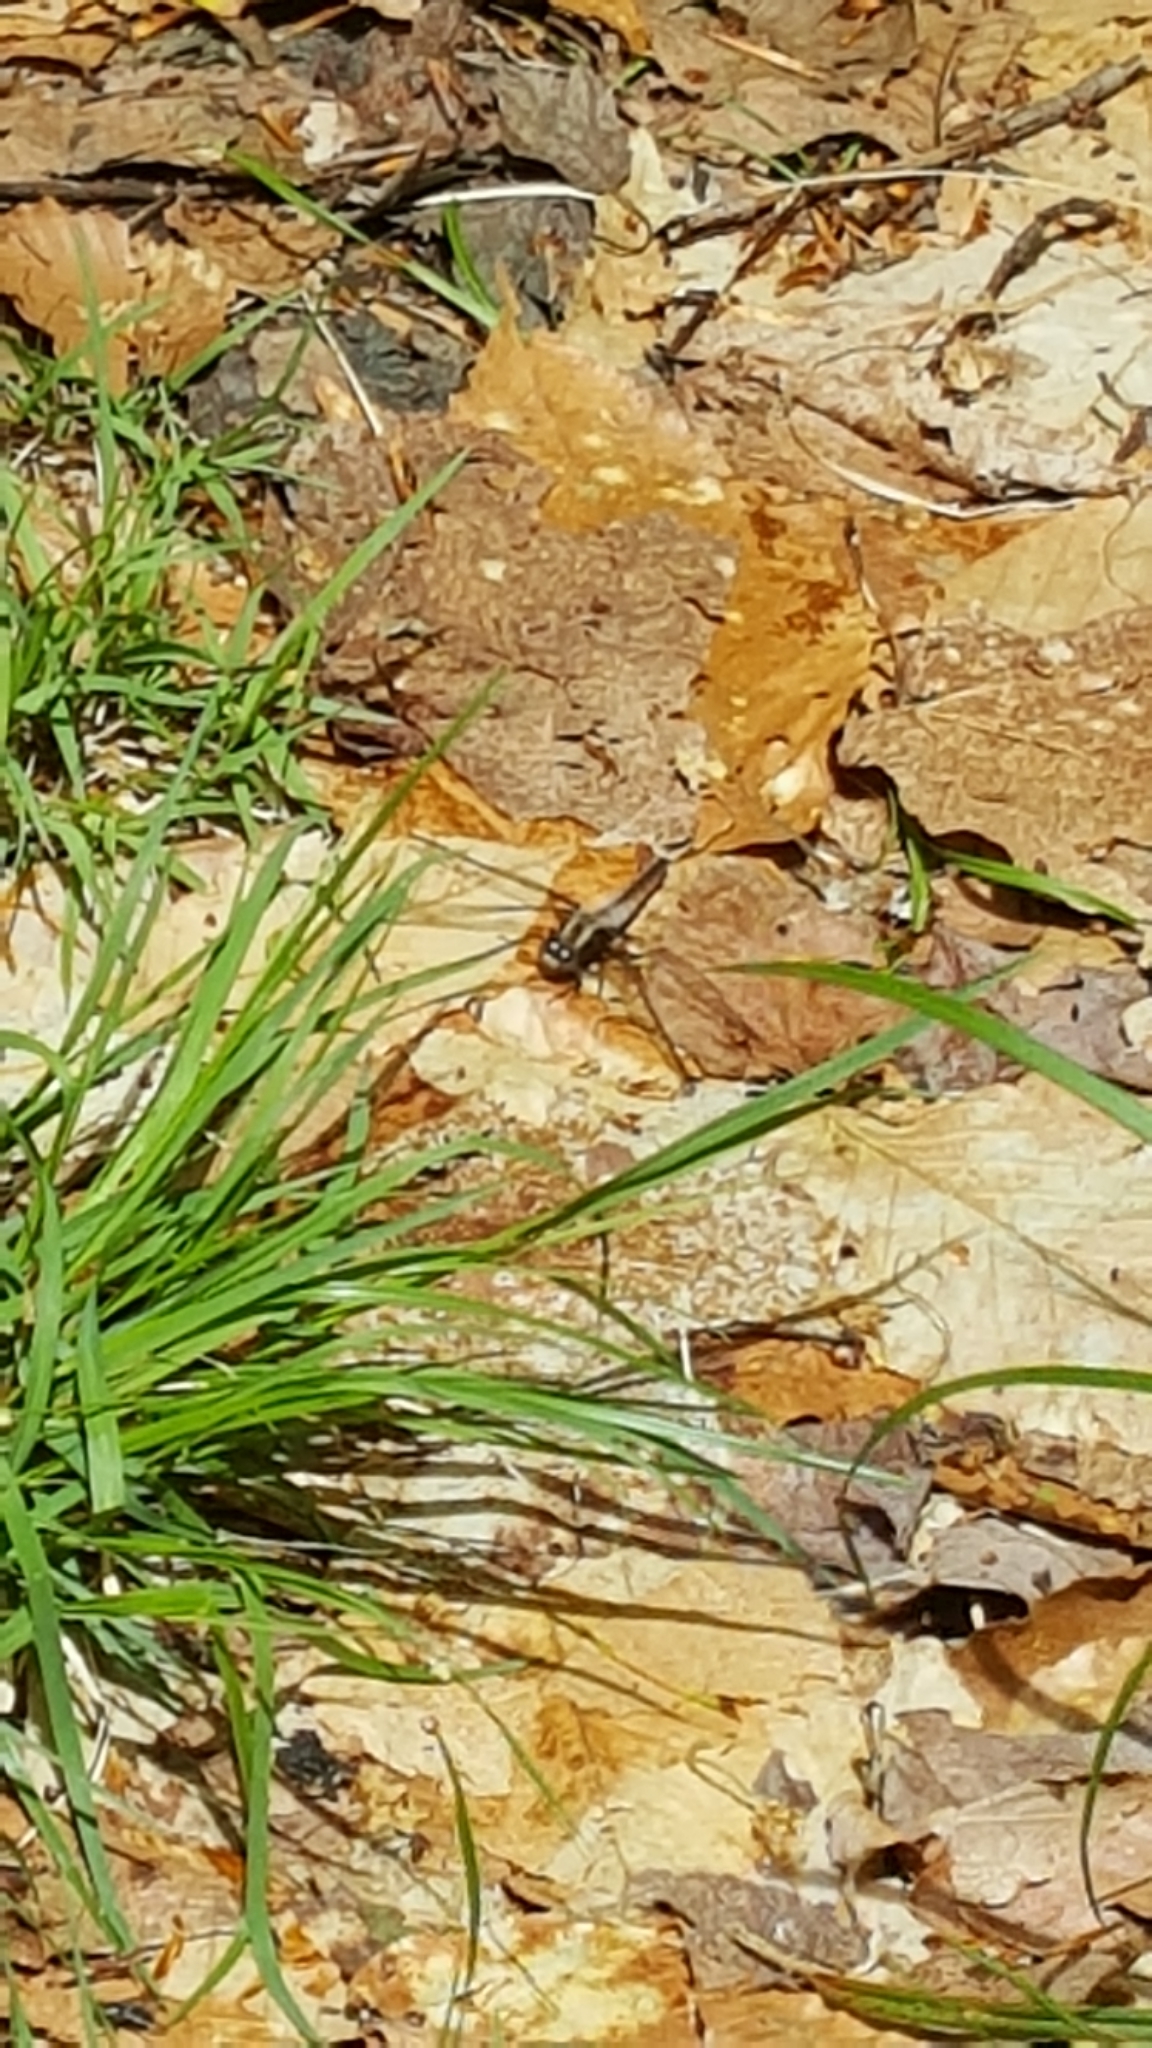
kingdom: Animalia
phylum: Arthropoda
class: Insecta
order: Odonata
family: Libellulidae
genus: Ladona
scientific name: Ladona julia
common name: Chalk-fronted corporal
